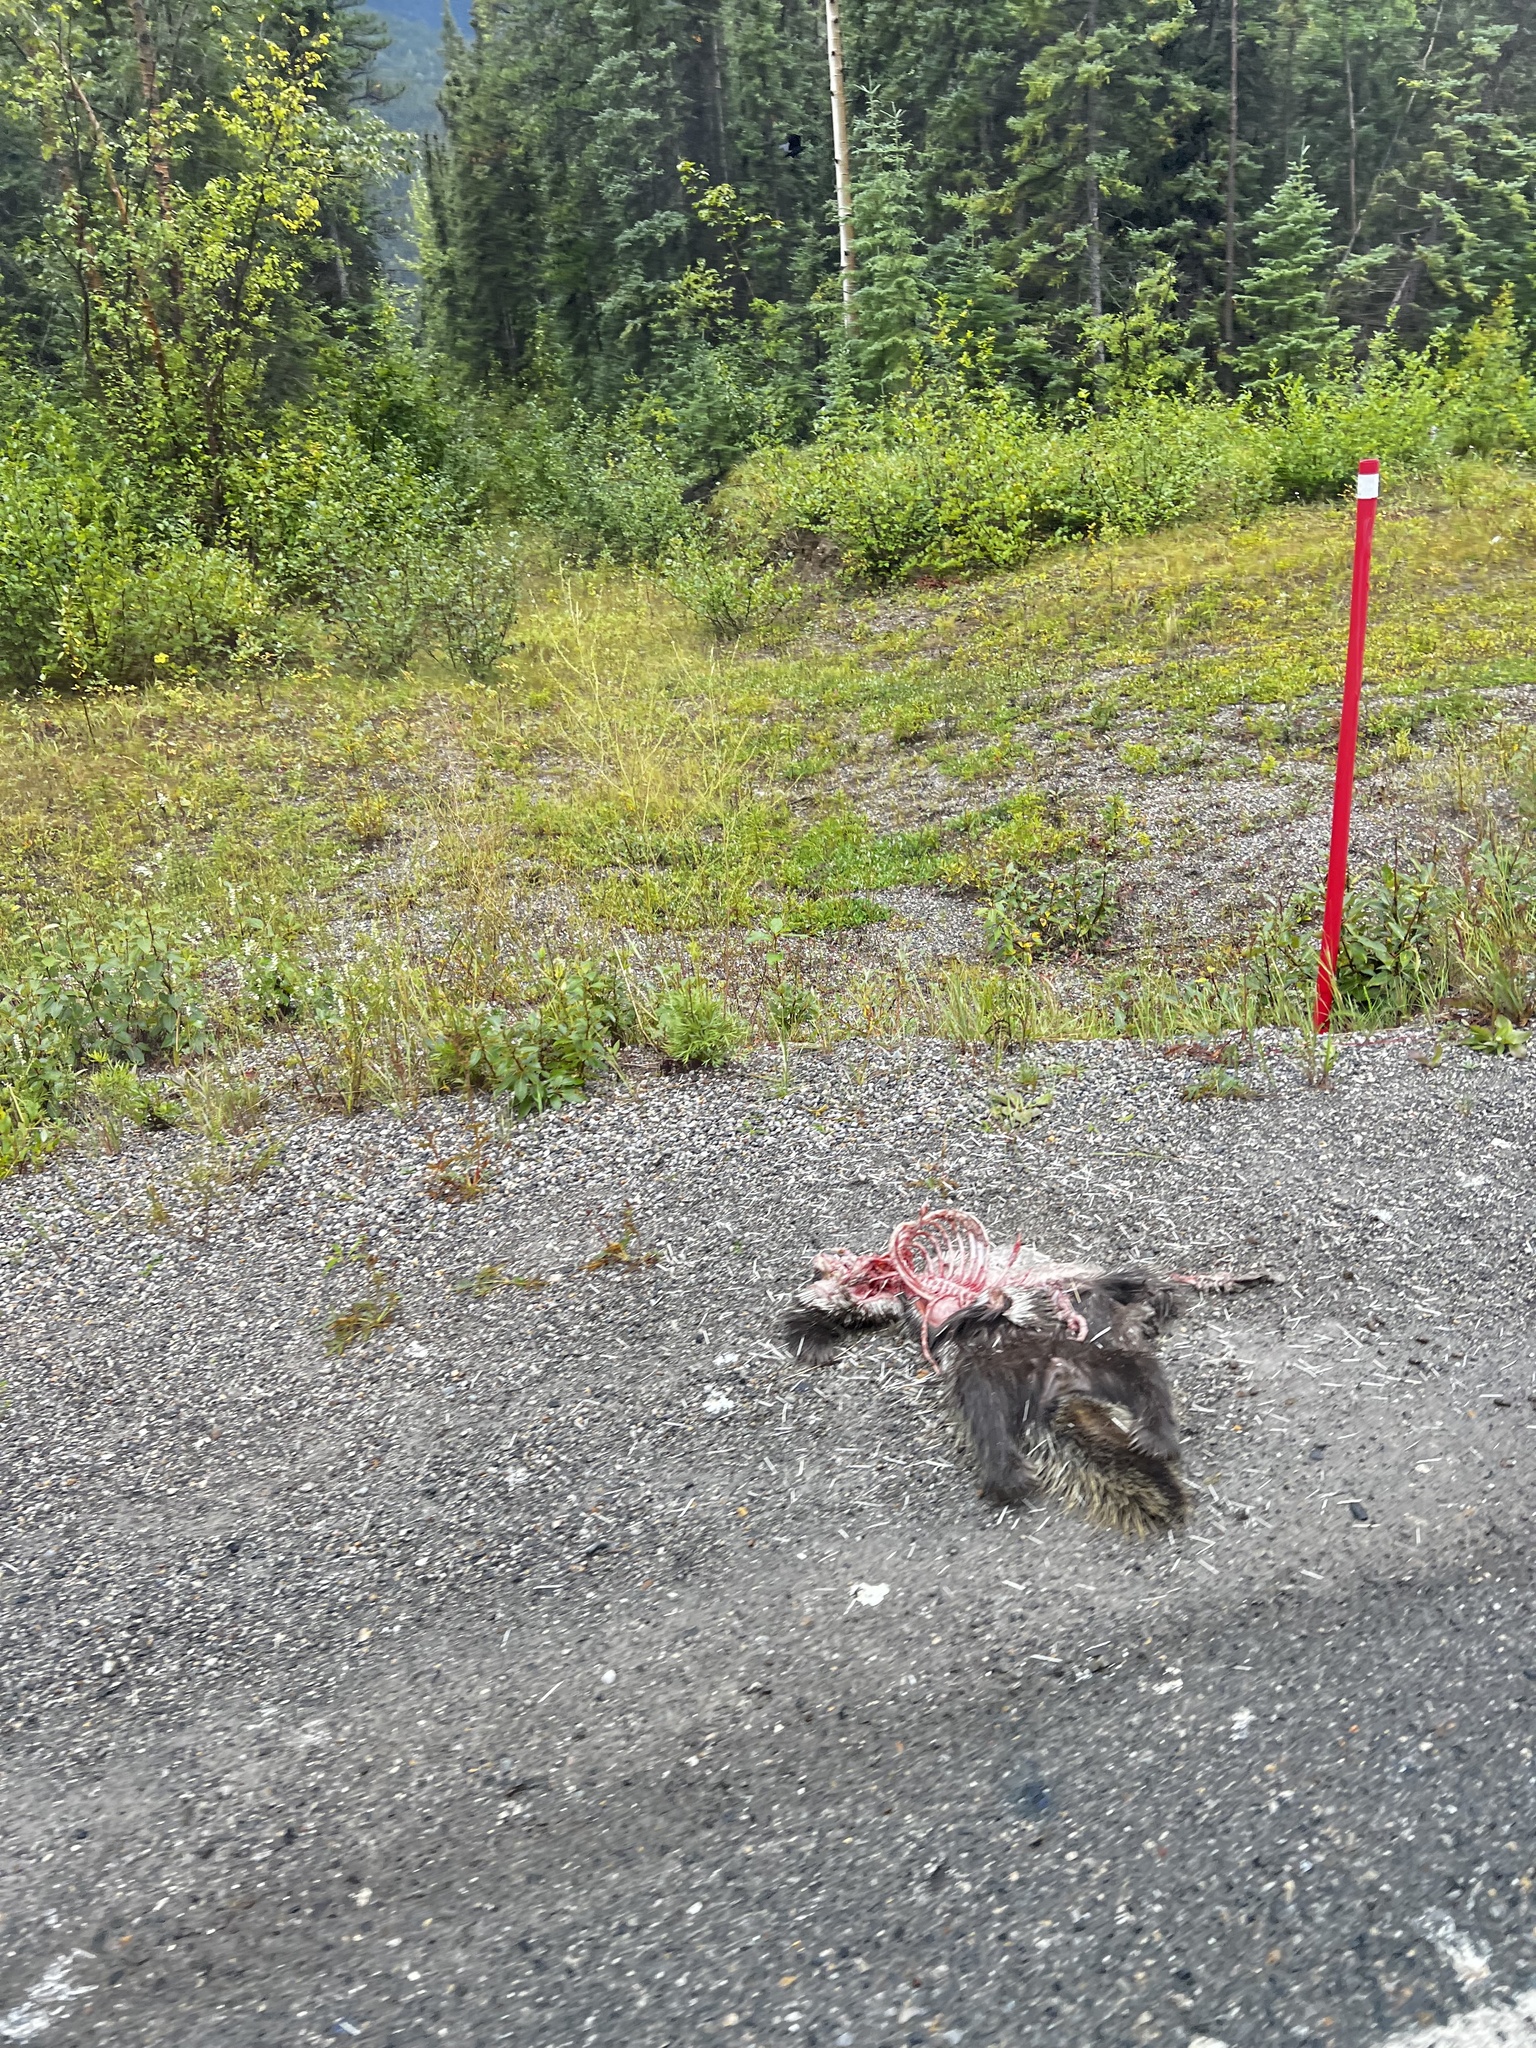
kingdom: Animalia
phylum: Chordata
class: Mammalia
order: Rodentia
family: Erethizontidae
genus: Erethizon
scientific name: Erethizon dorsatus
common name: North american porcupine
